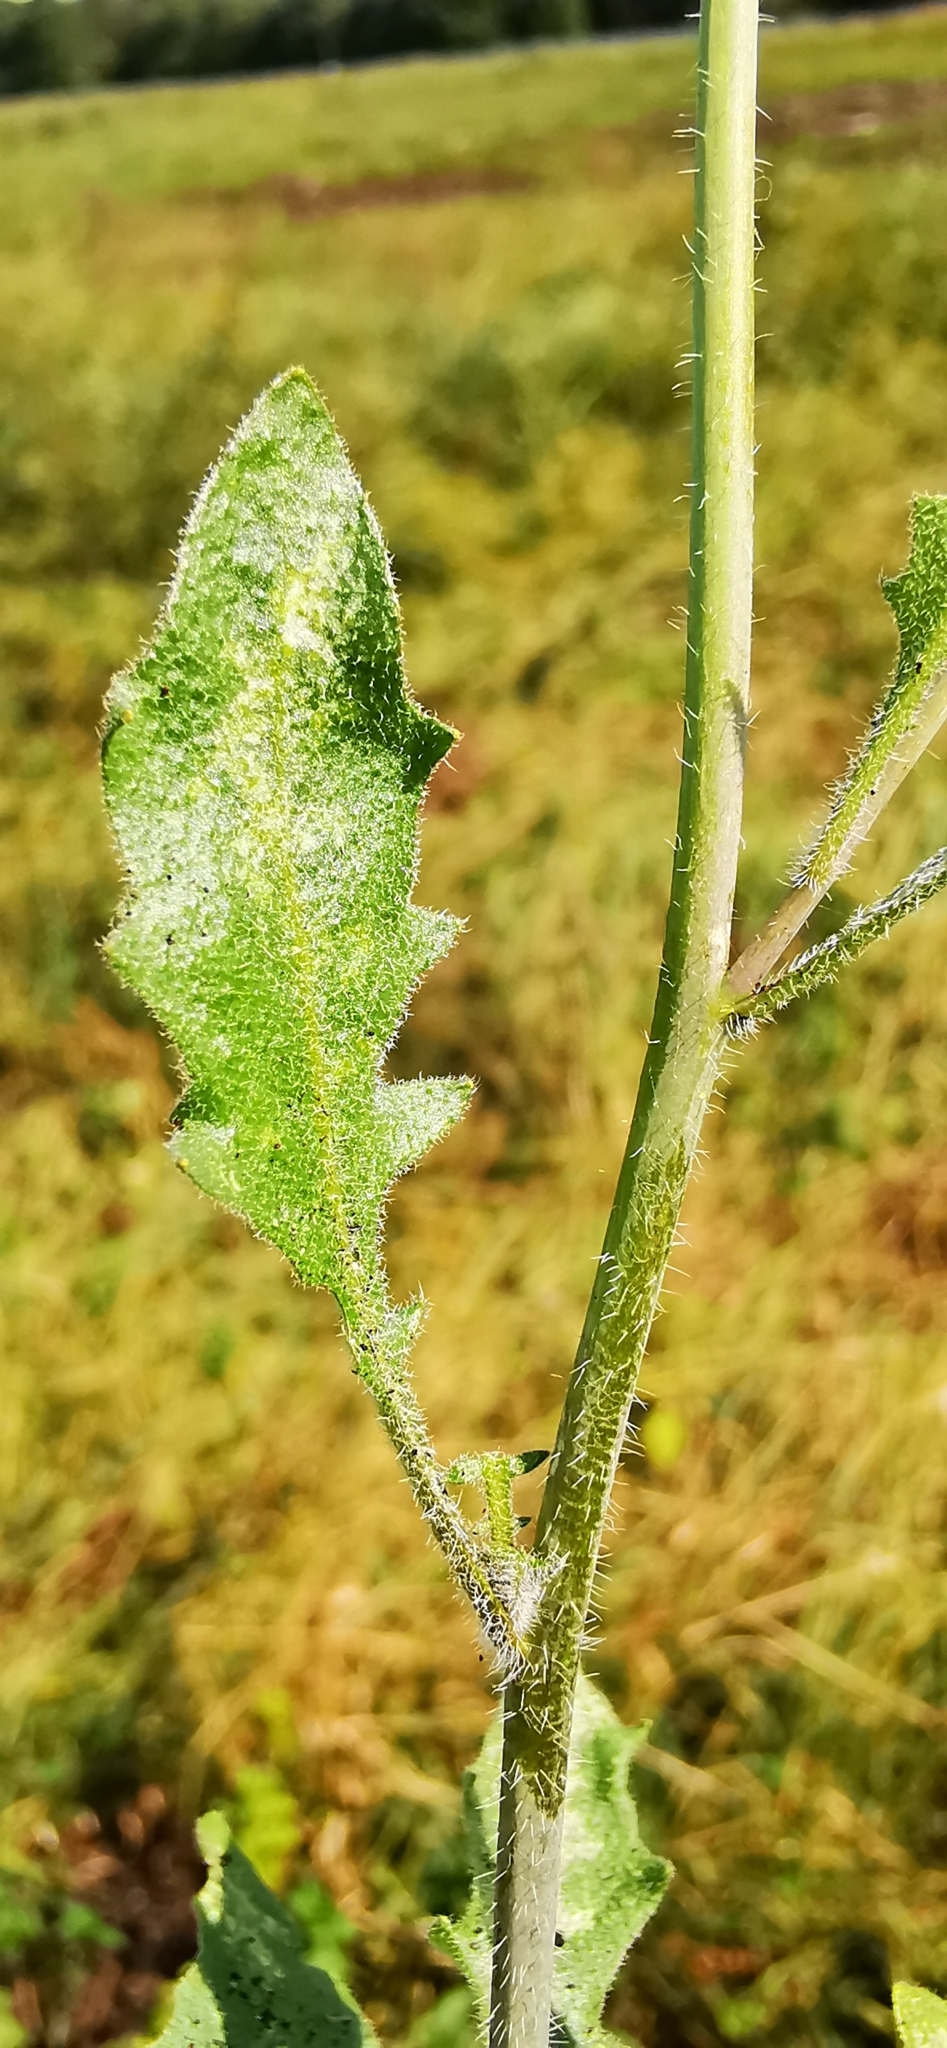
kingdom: Plantae
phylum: Tracheophyta
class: Magnoliopsida
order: Brassicales
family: Brassicaceae
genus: Arabidopsis
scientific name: Arabidopsis arenosa
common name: Sand rock-cress
